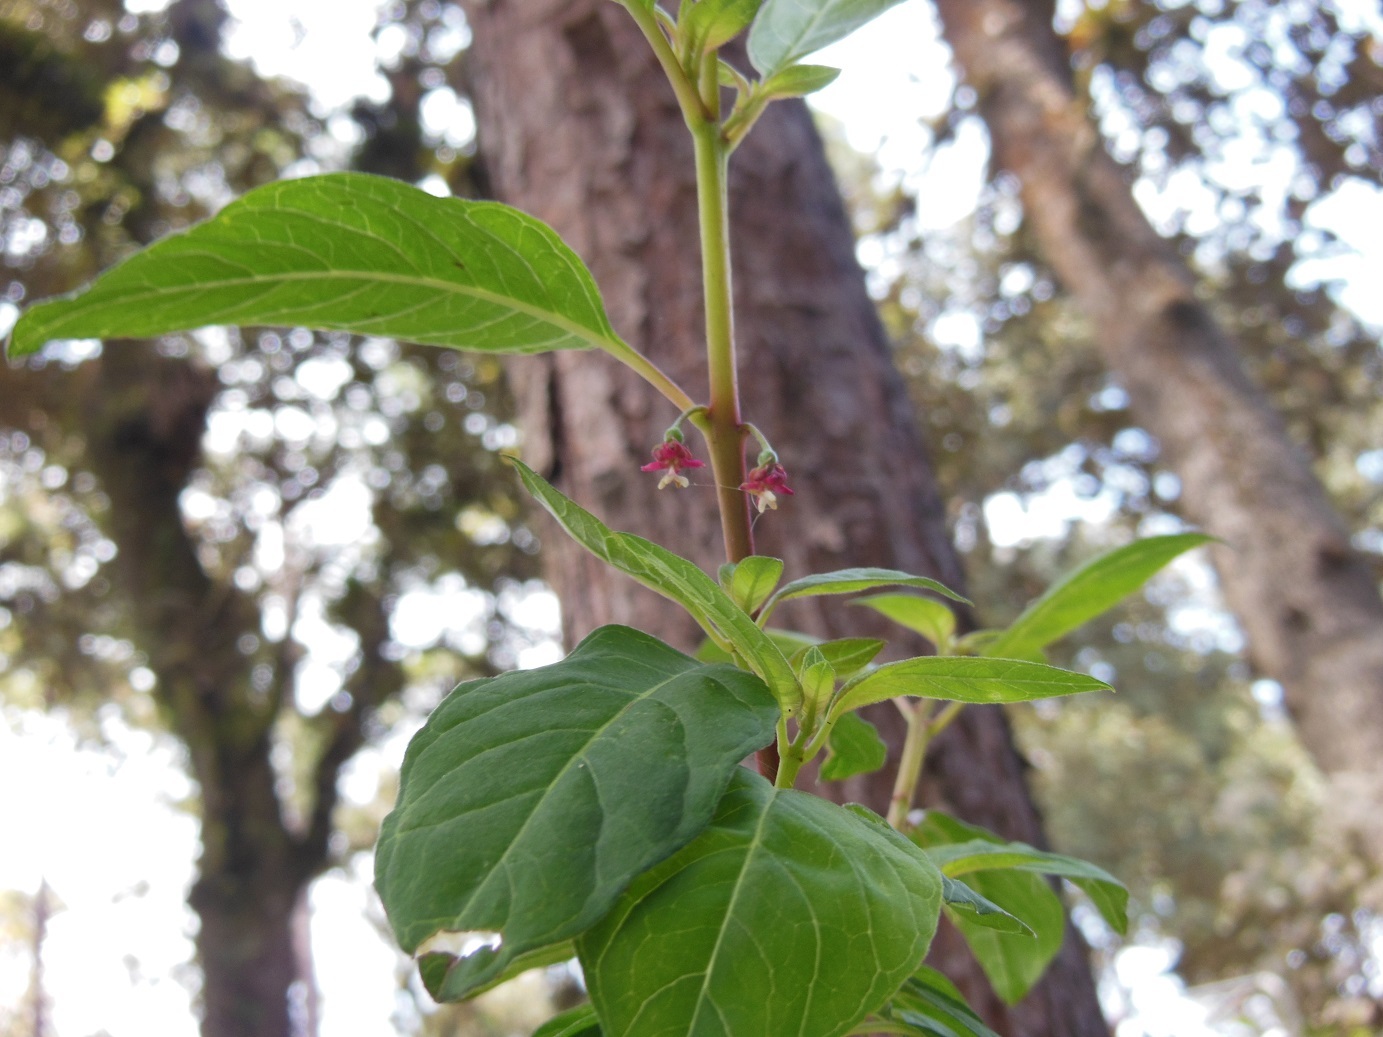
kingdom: Plantae
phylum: Tracheophyta
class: Magnoliopsida
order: Myrtales
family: Onagraceae
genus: Fuchsia
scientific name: Fuchsia encliandra
